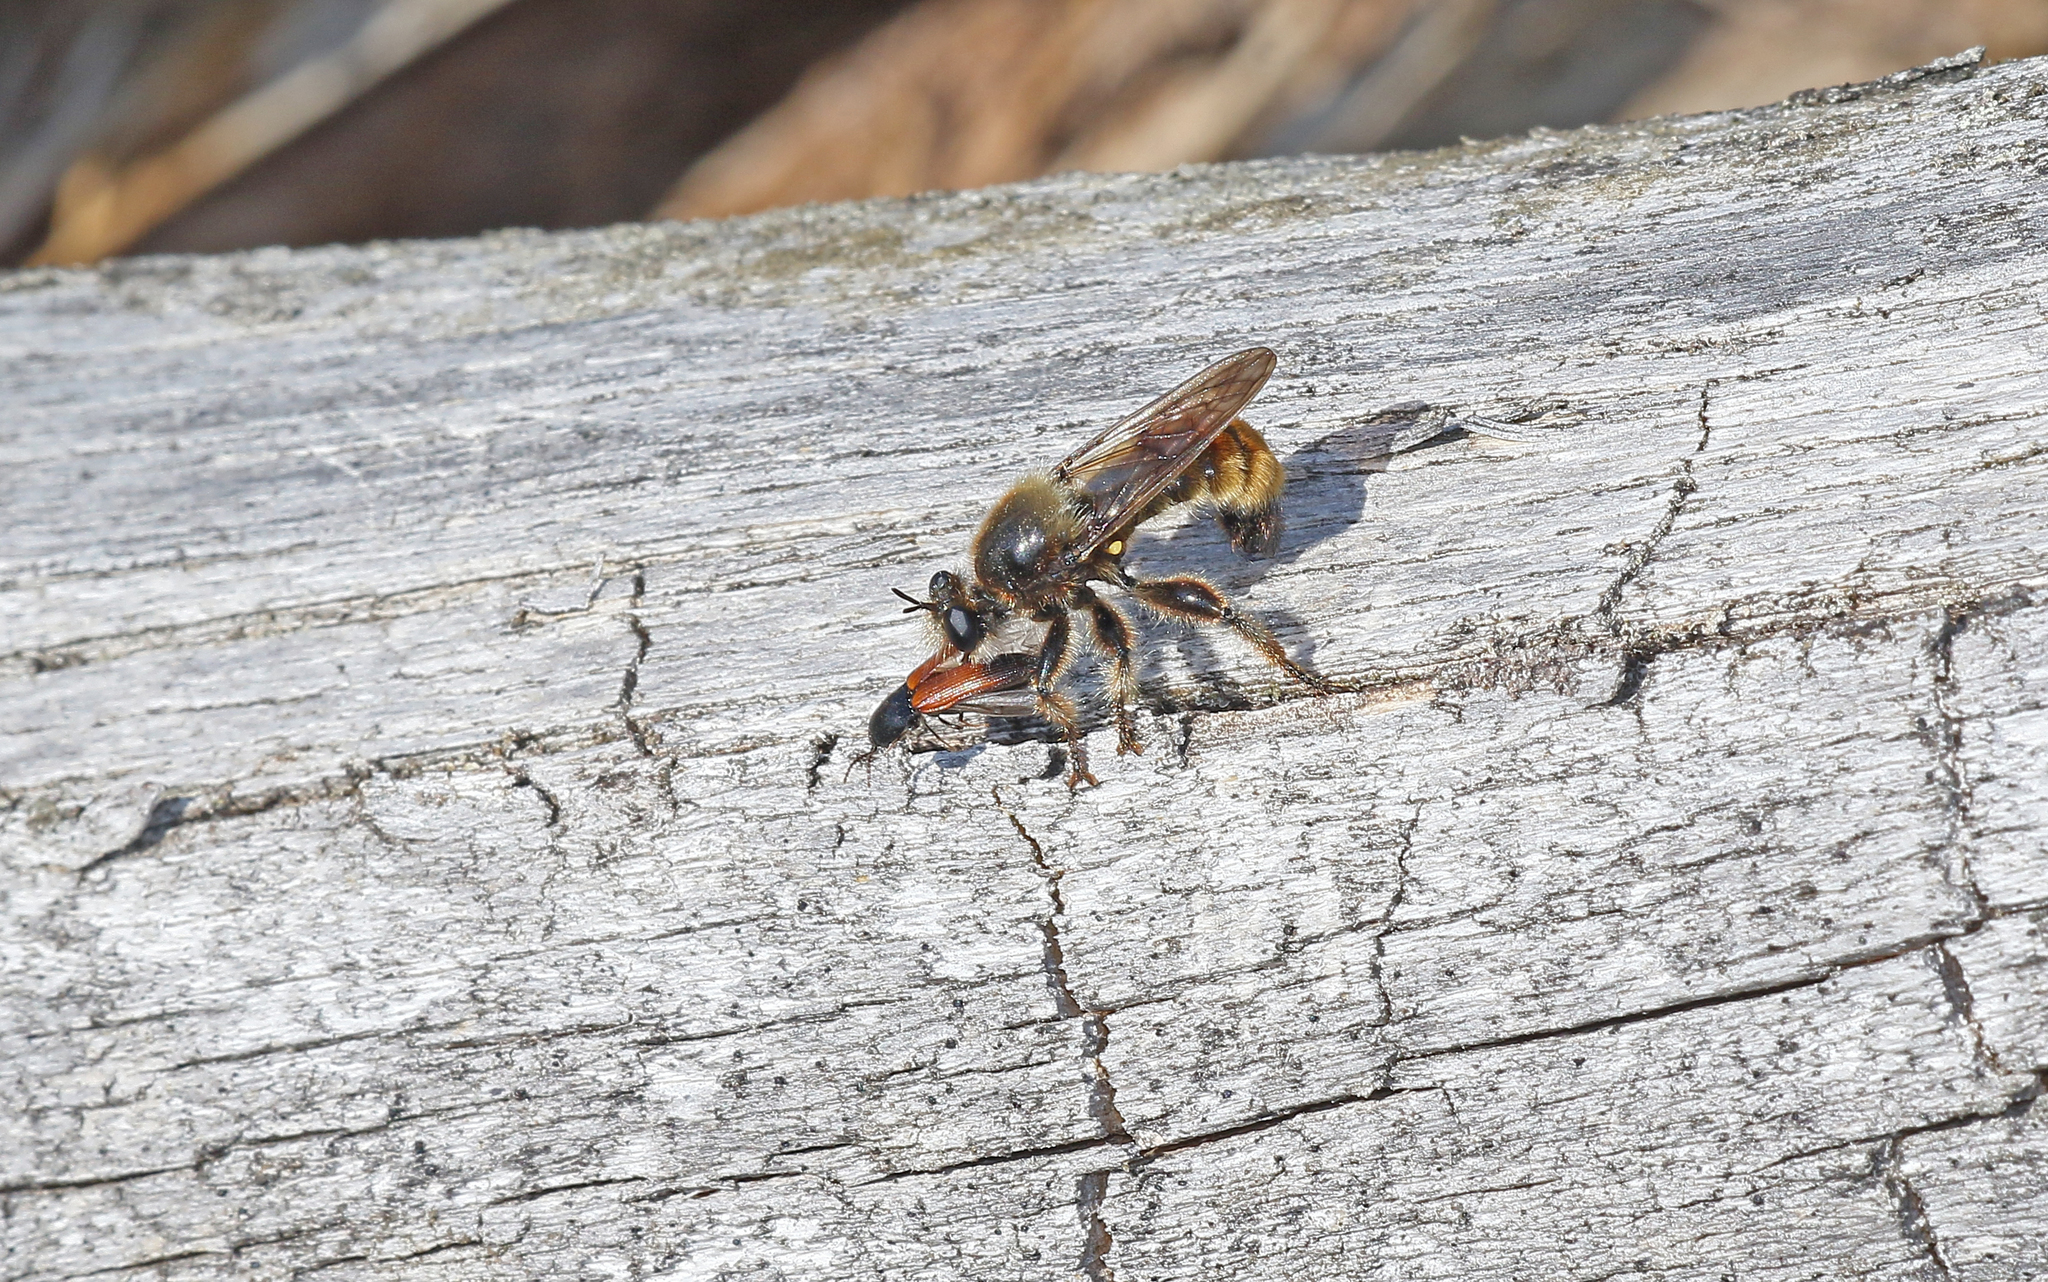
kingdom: Animalia
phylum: Arthropoda
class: Insecta
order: Diptera
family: Asilidae
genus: Laphria
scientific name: Laphria flava
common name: Bumblebee robberfly
